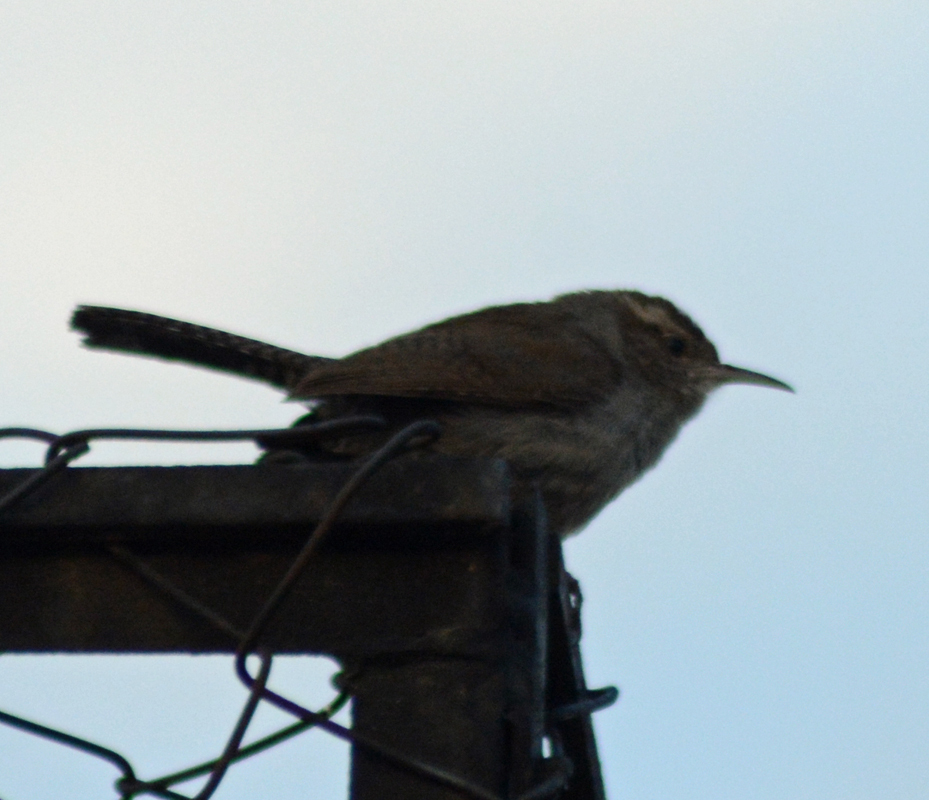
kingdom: Animalia
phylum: Chordata
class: Aves
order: Passeriformes
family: Troglodytidae
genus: Thryomanes
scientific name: Thryomanes bewickii
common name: Bewick's wren
